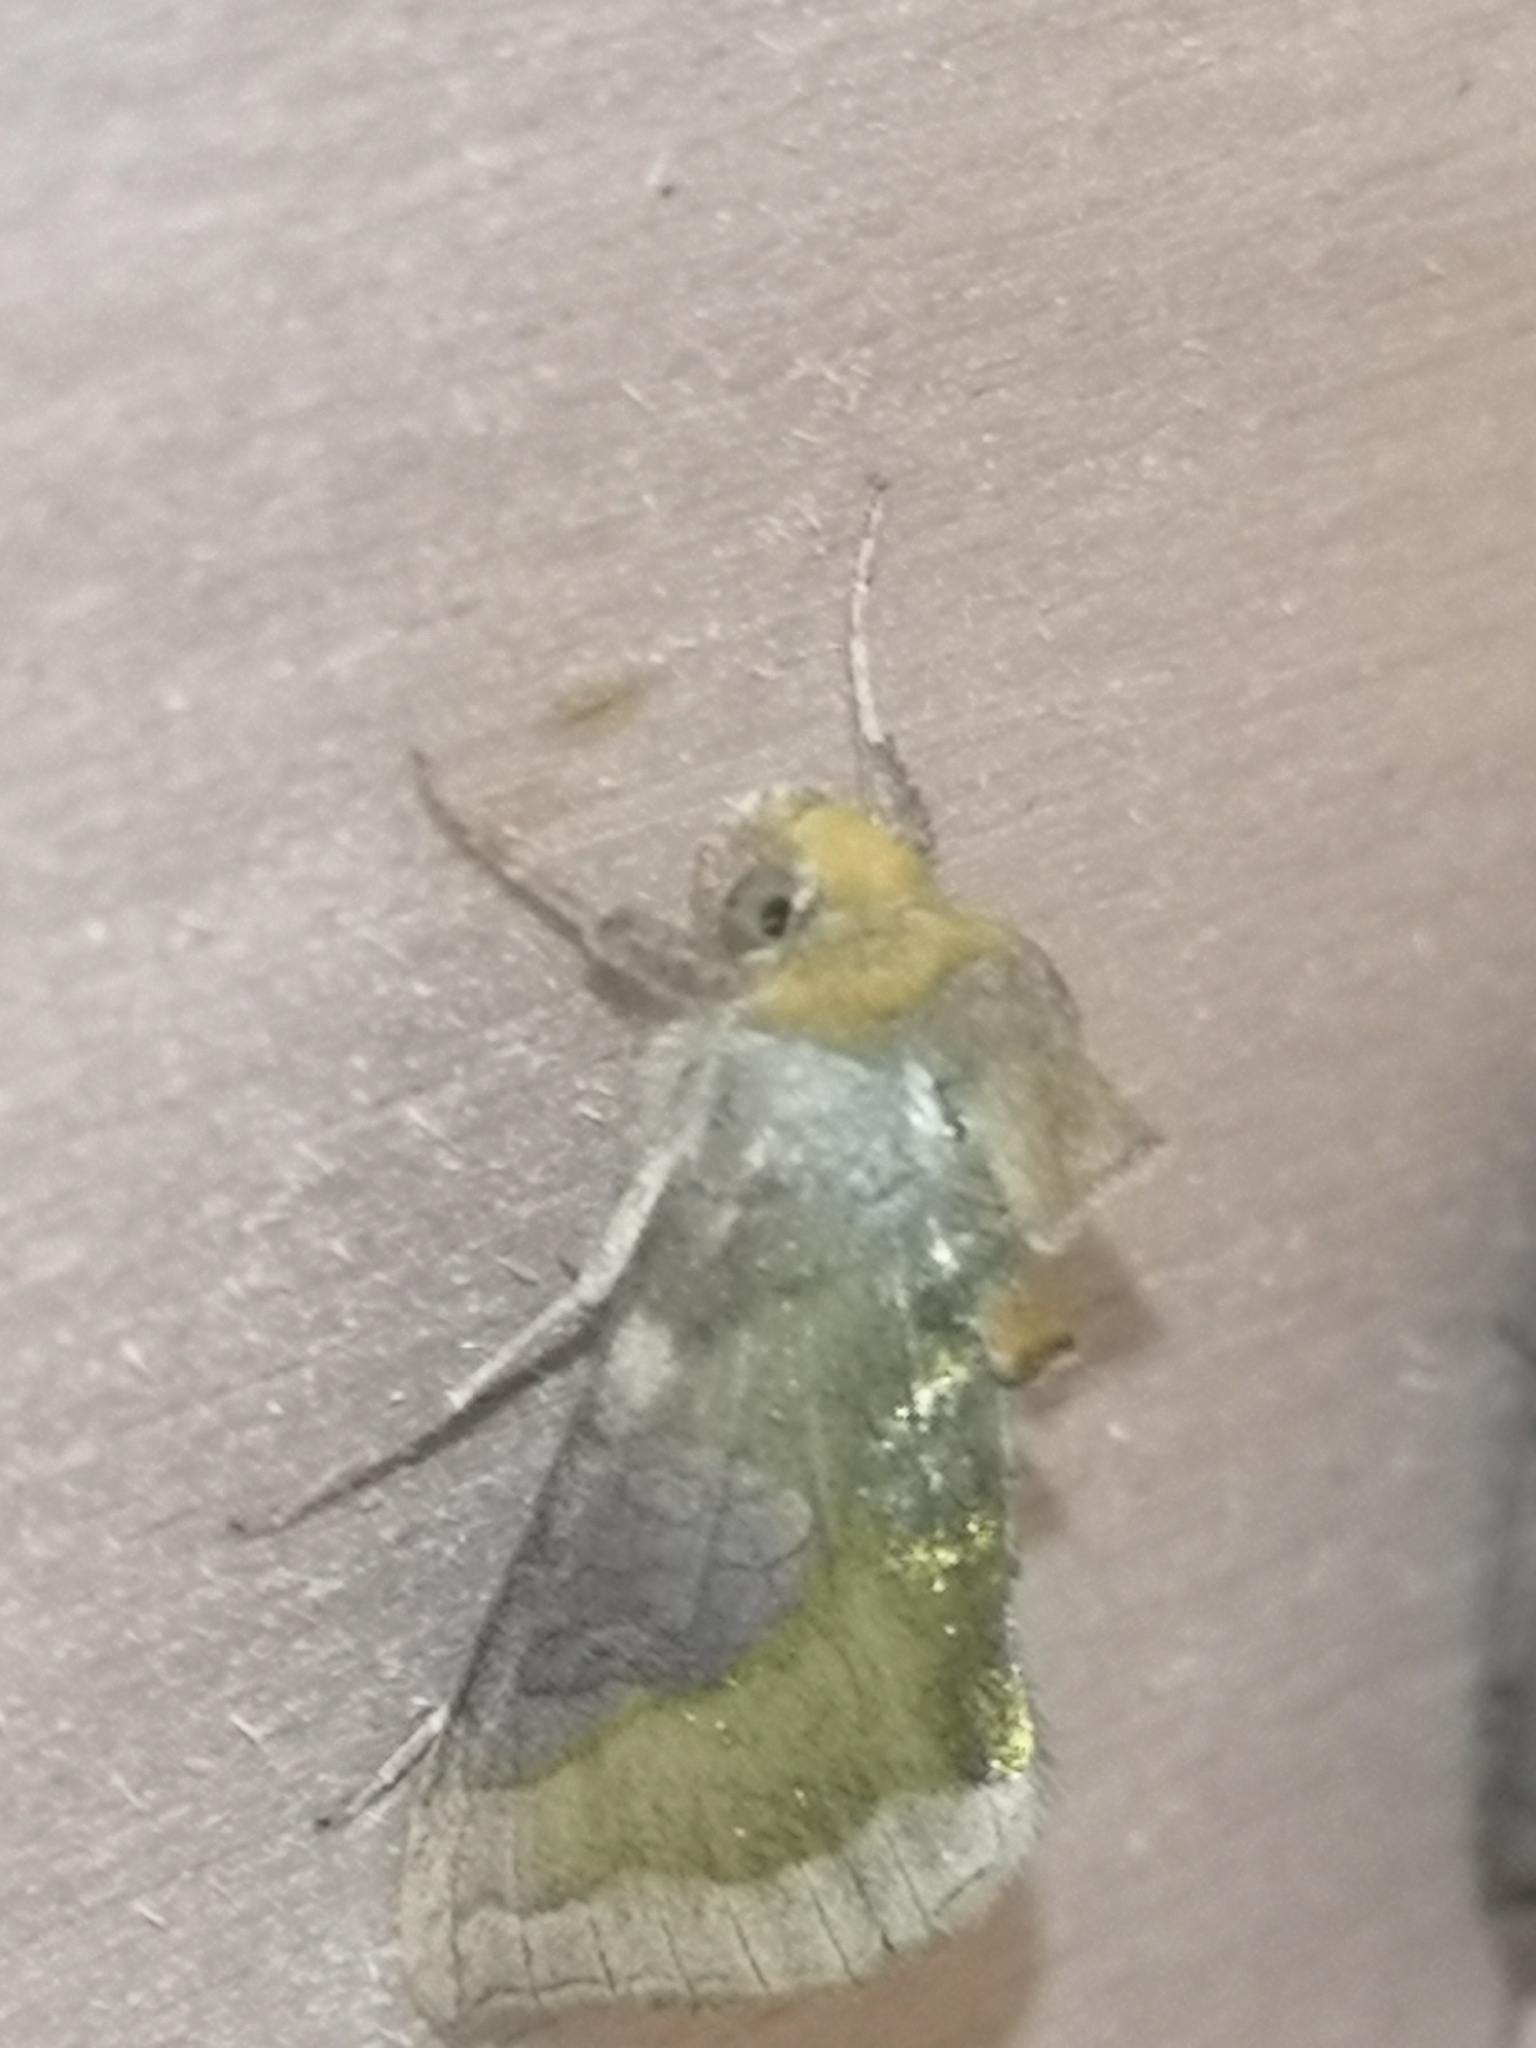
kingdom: Animalia
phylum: Arthropoda
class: Insecta
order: Lepidoptera
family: Noctuidae
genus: Diachrysia
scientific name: Diachrysia chrysitis
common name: Burnished brass
